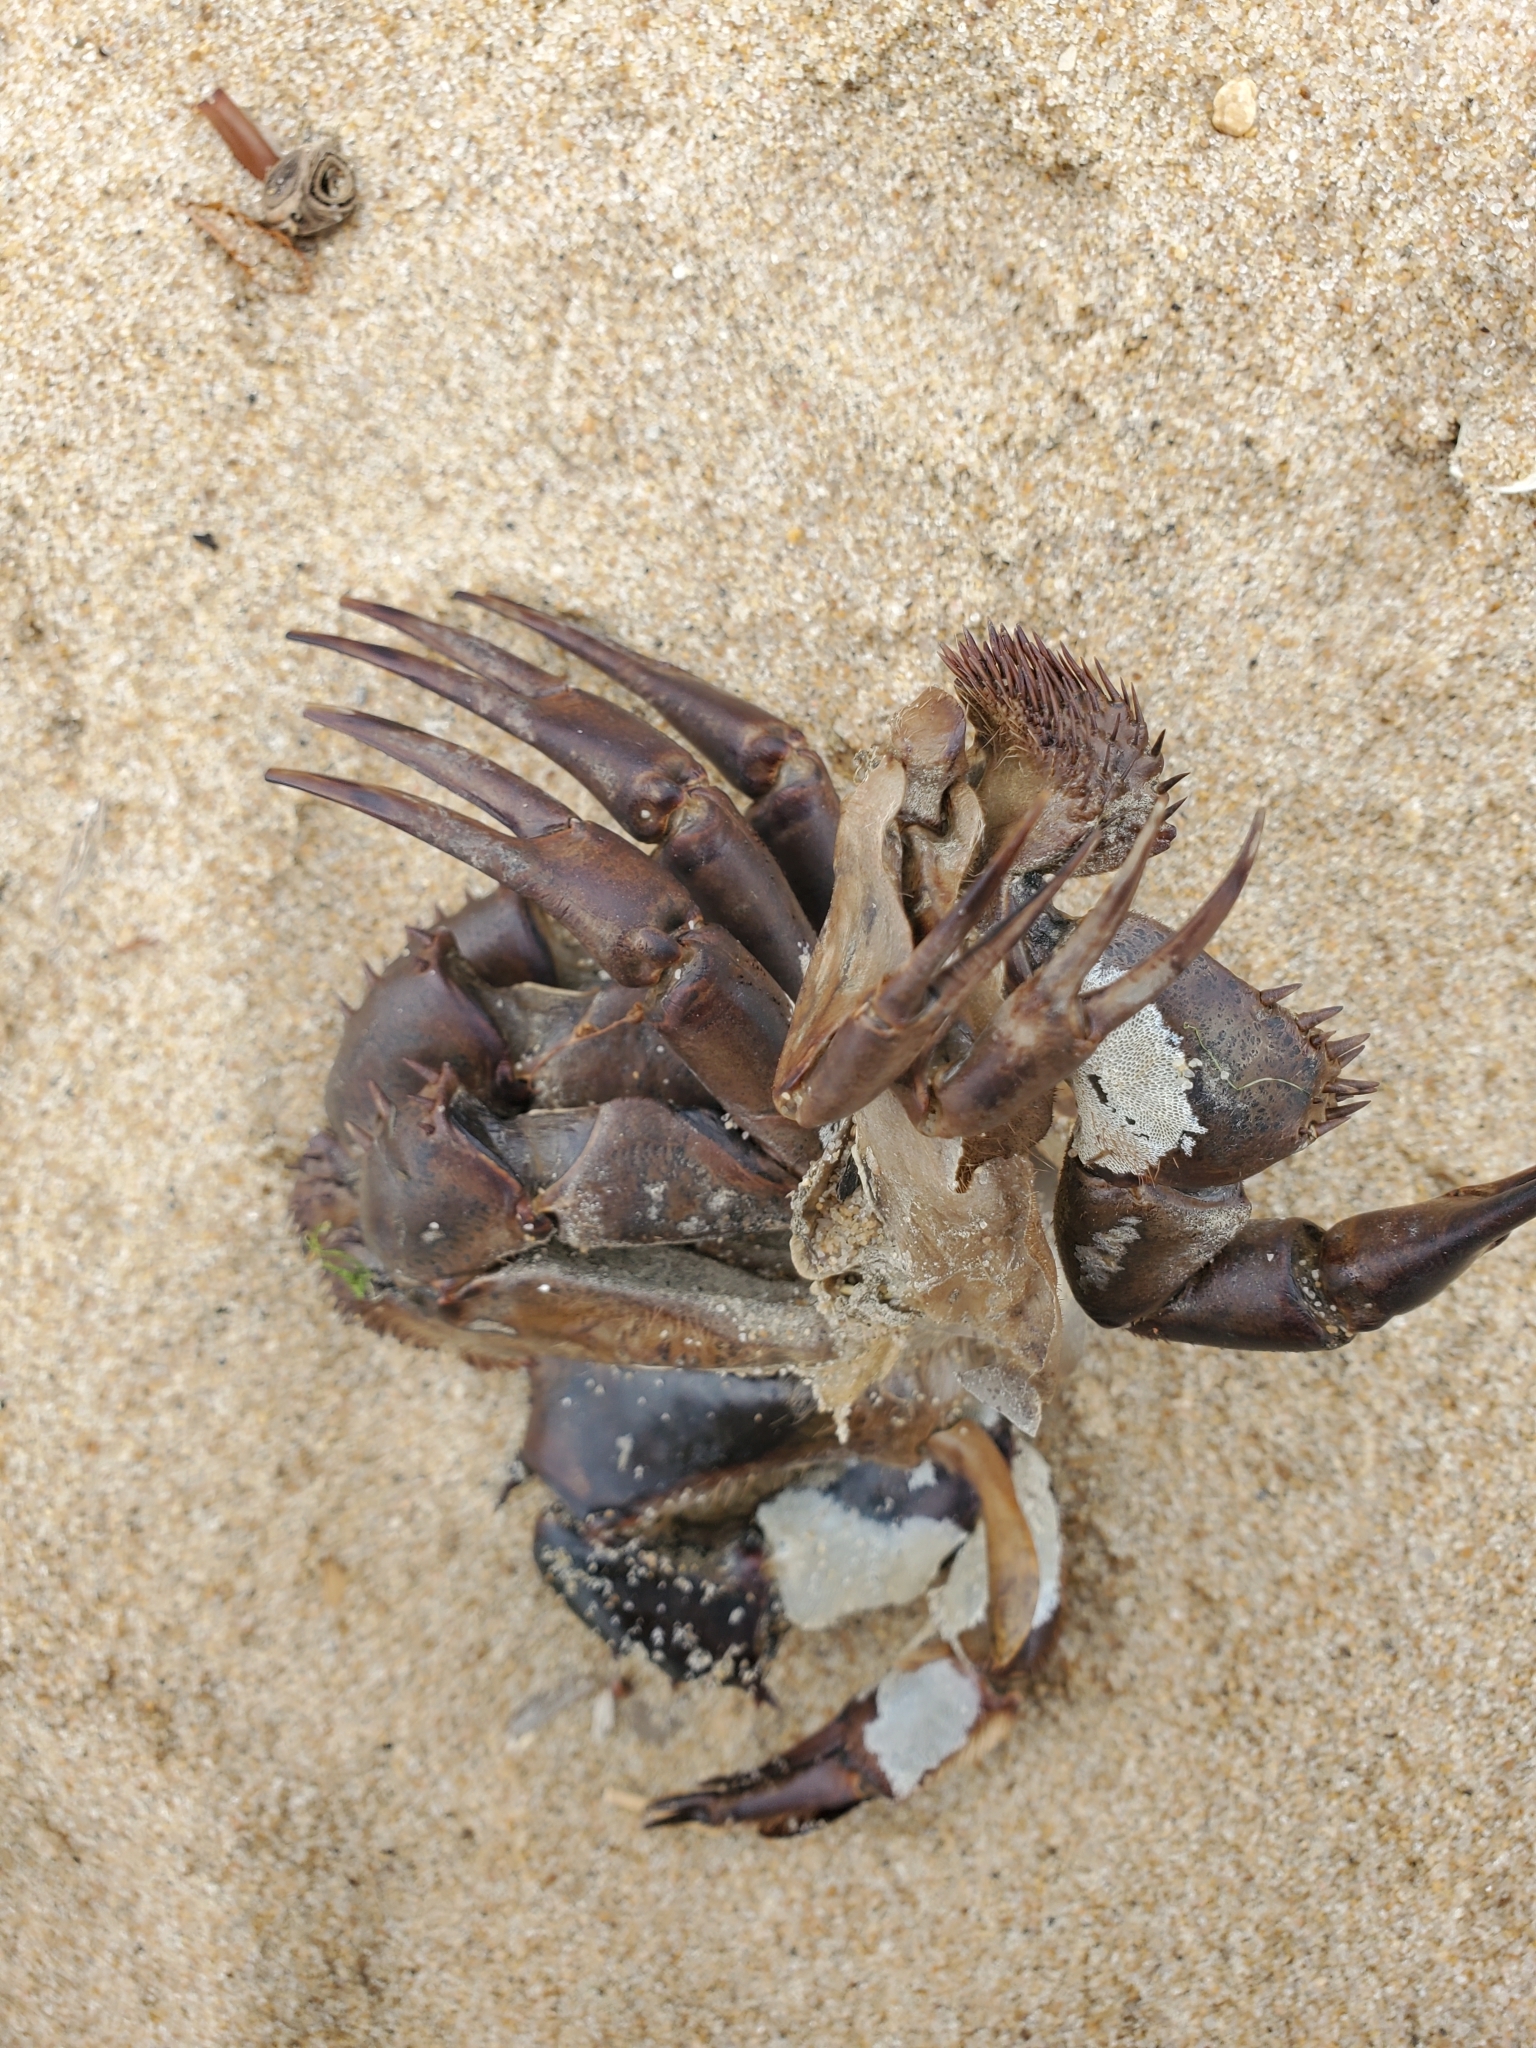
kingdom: Animalia
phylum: Arthropoda
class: Merostomata
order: Xiphosurida
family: Limulidae
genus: Limulus
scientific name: Limulus polyphemus
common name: Horseshoe crab
